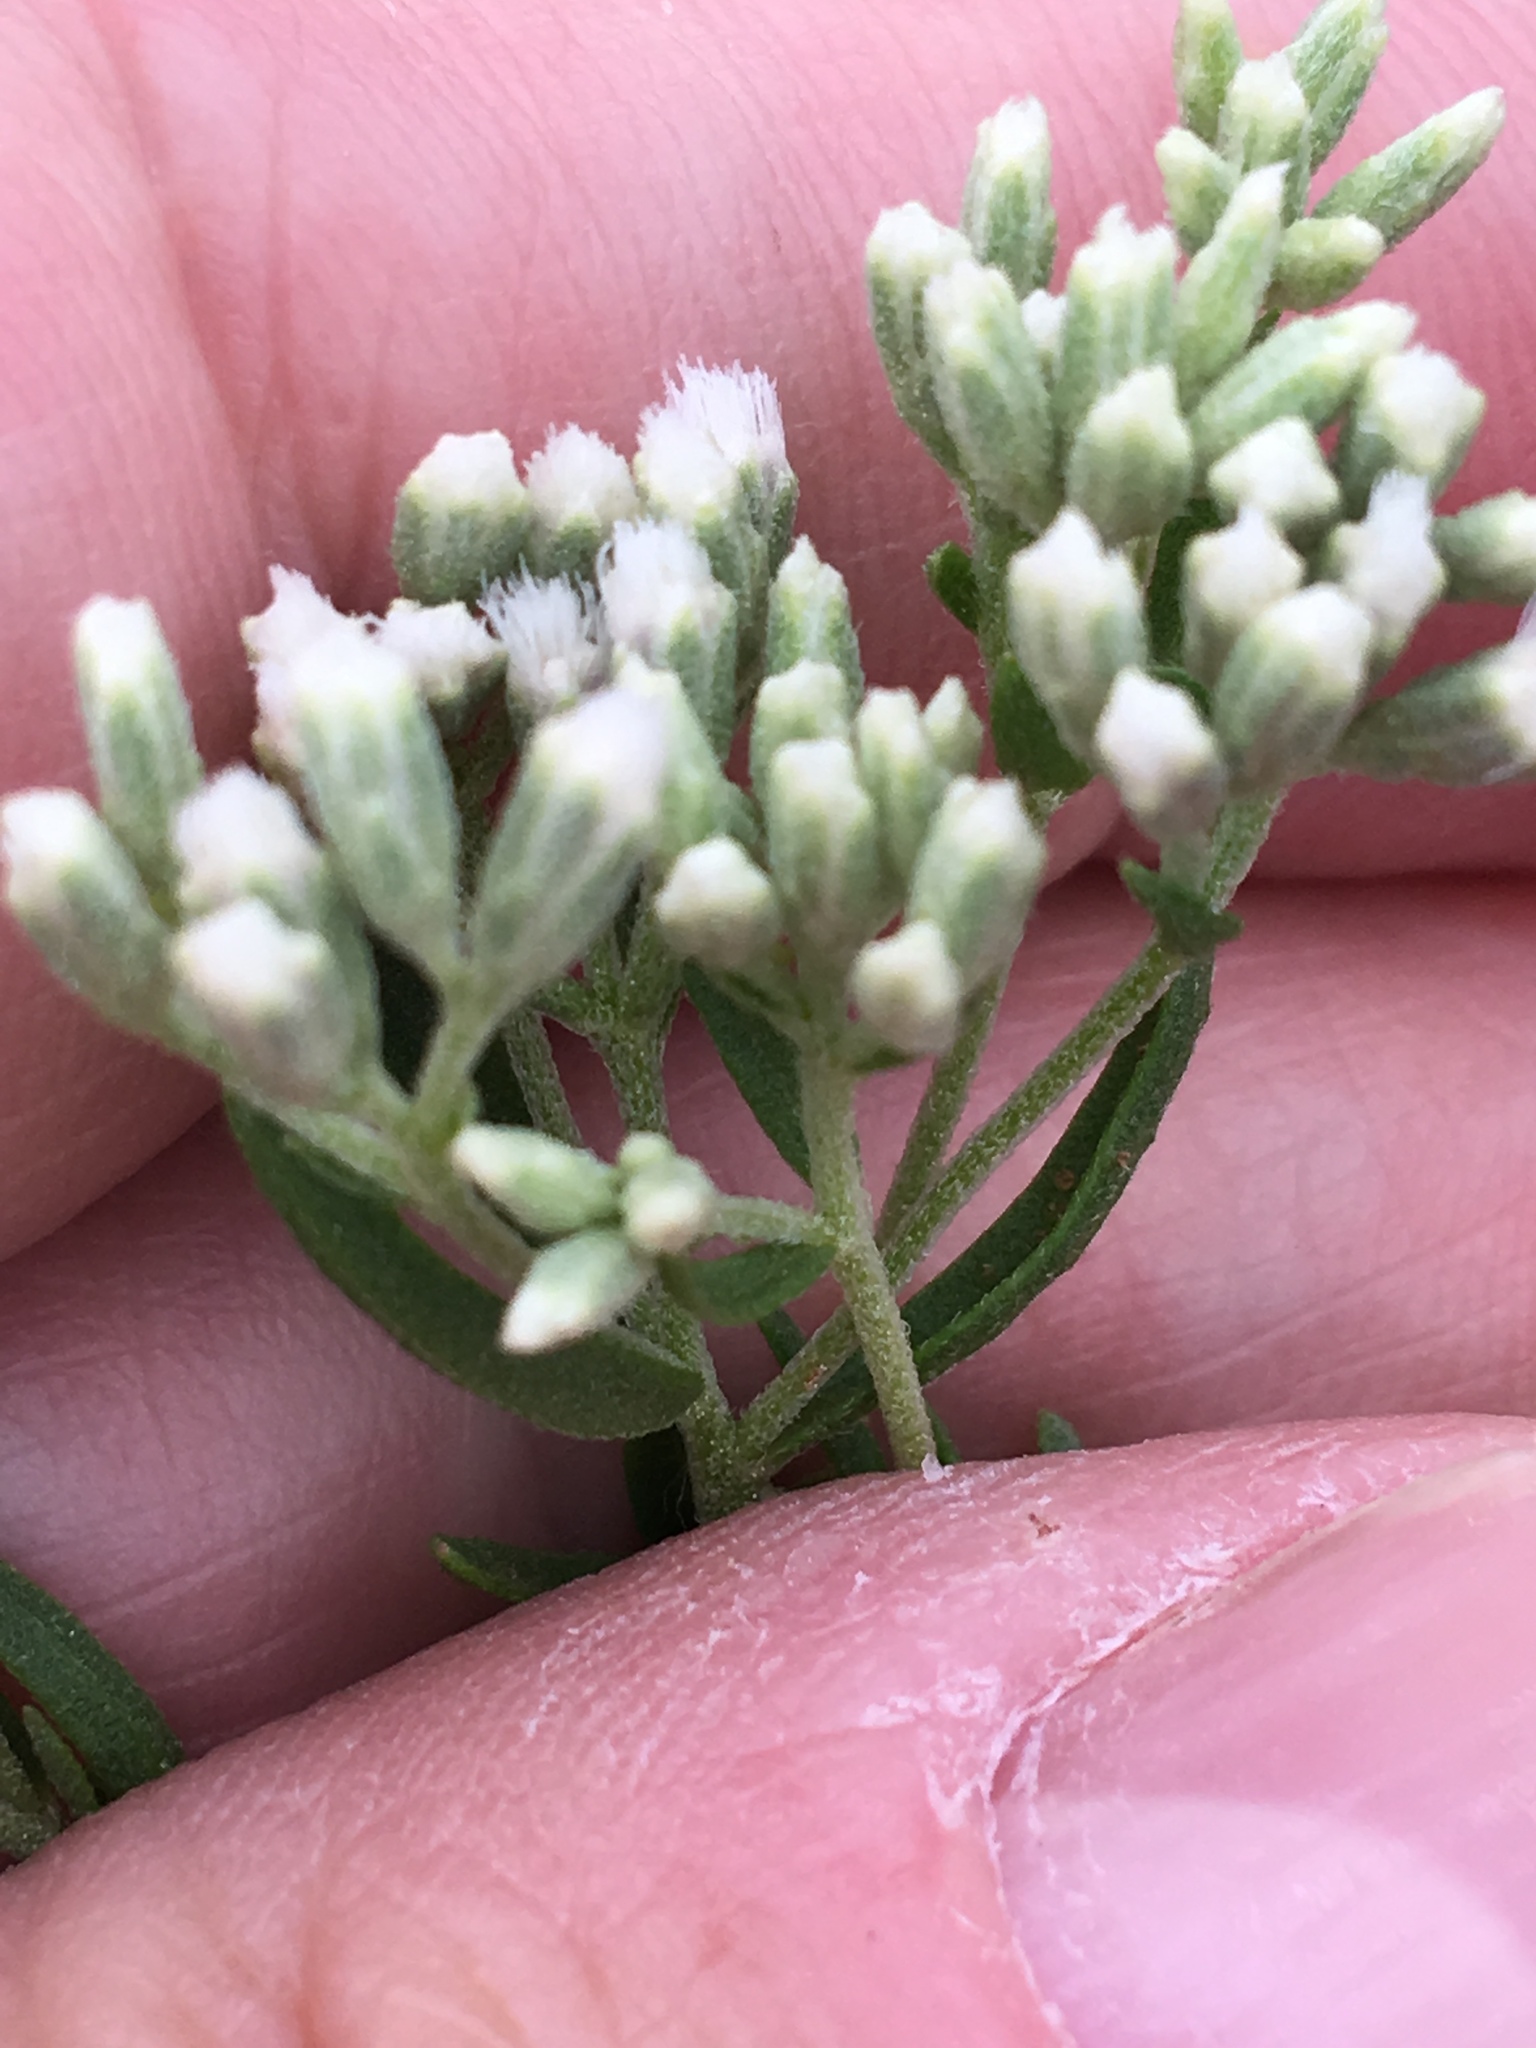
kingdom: Plantae
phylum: Tracheophyta
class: Magnoliopsida
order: Asterales
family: Asteraceae
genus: Eupatorium
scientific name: Eupatorium hyssopifolium
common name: Hyssop-leaf thoroughwort
